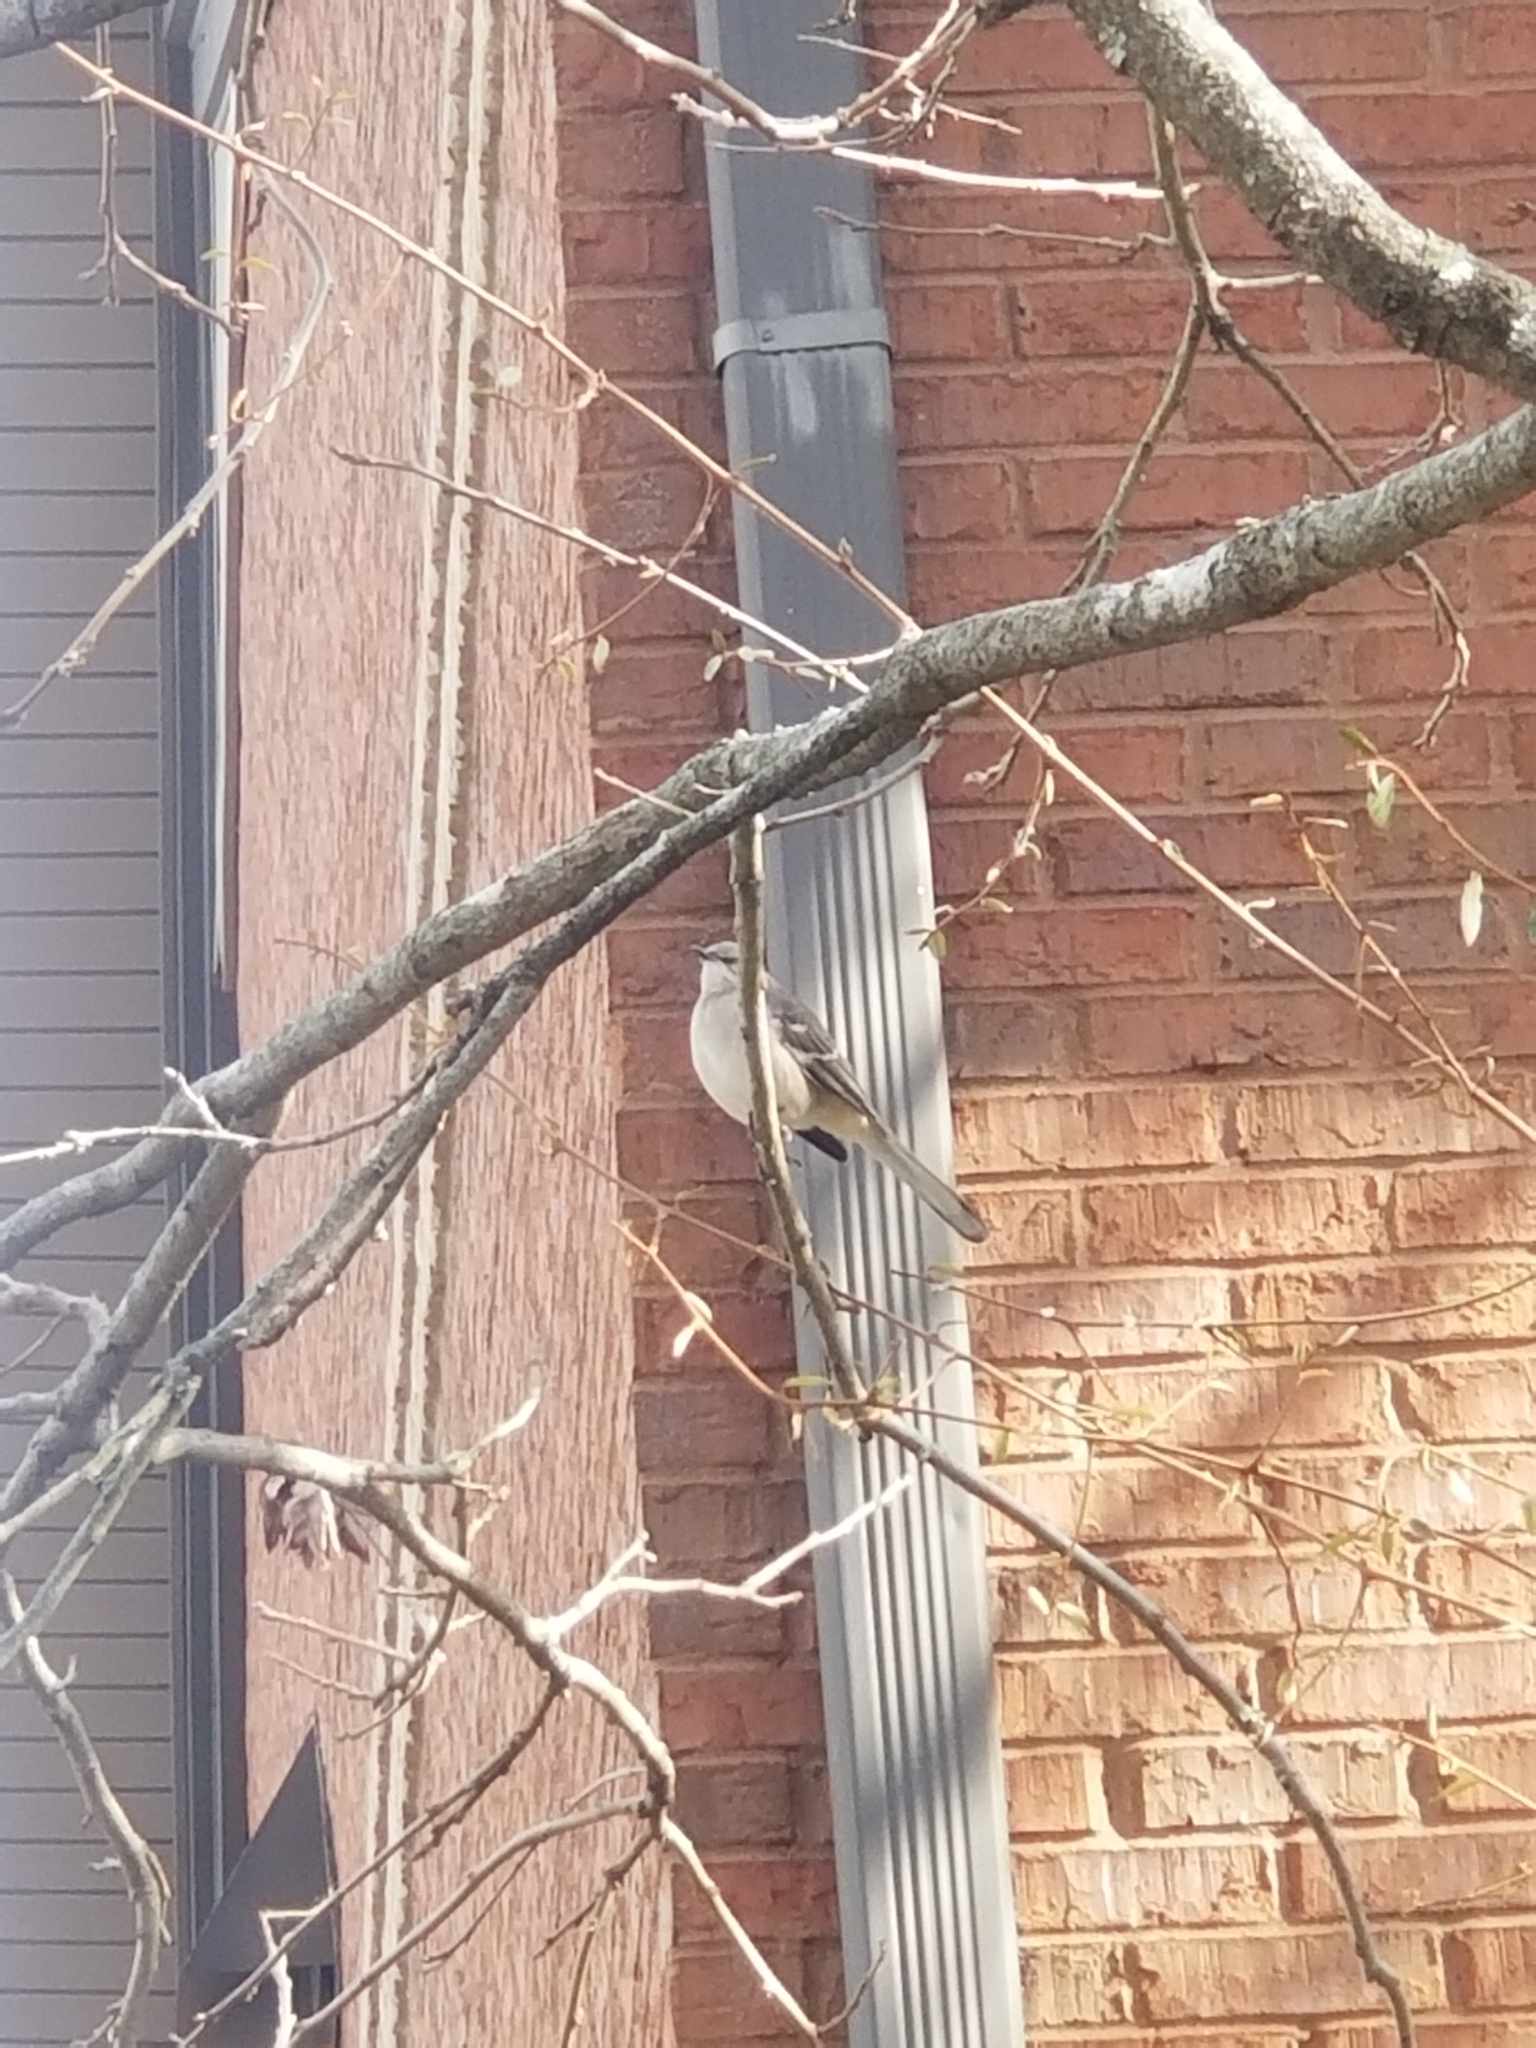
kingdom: Animalia
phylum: Chordata
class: Aves
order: Passeriformes
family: Mimidae
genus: Mimus
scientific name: Mimus polyglottos
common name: Northern mockingbird
